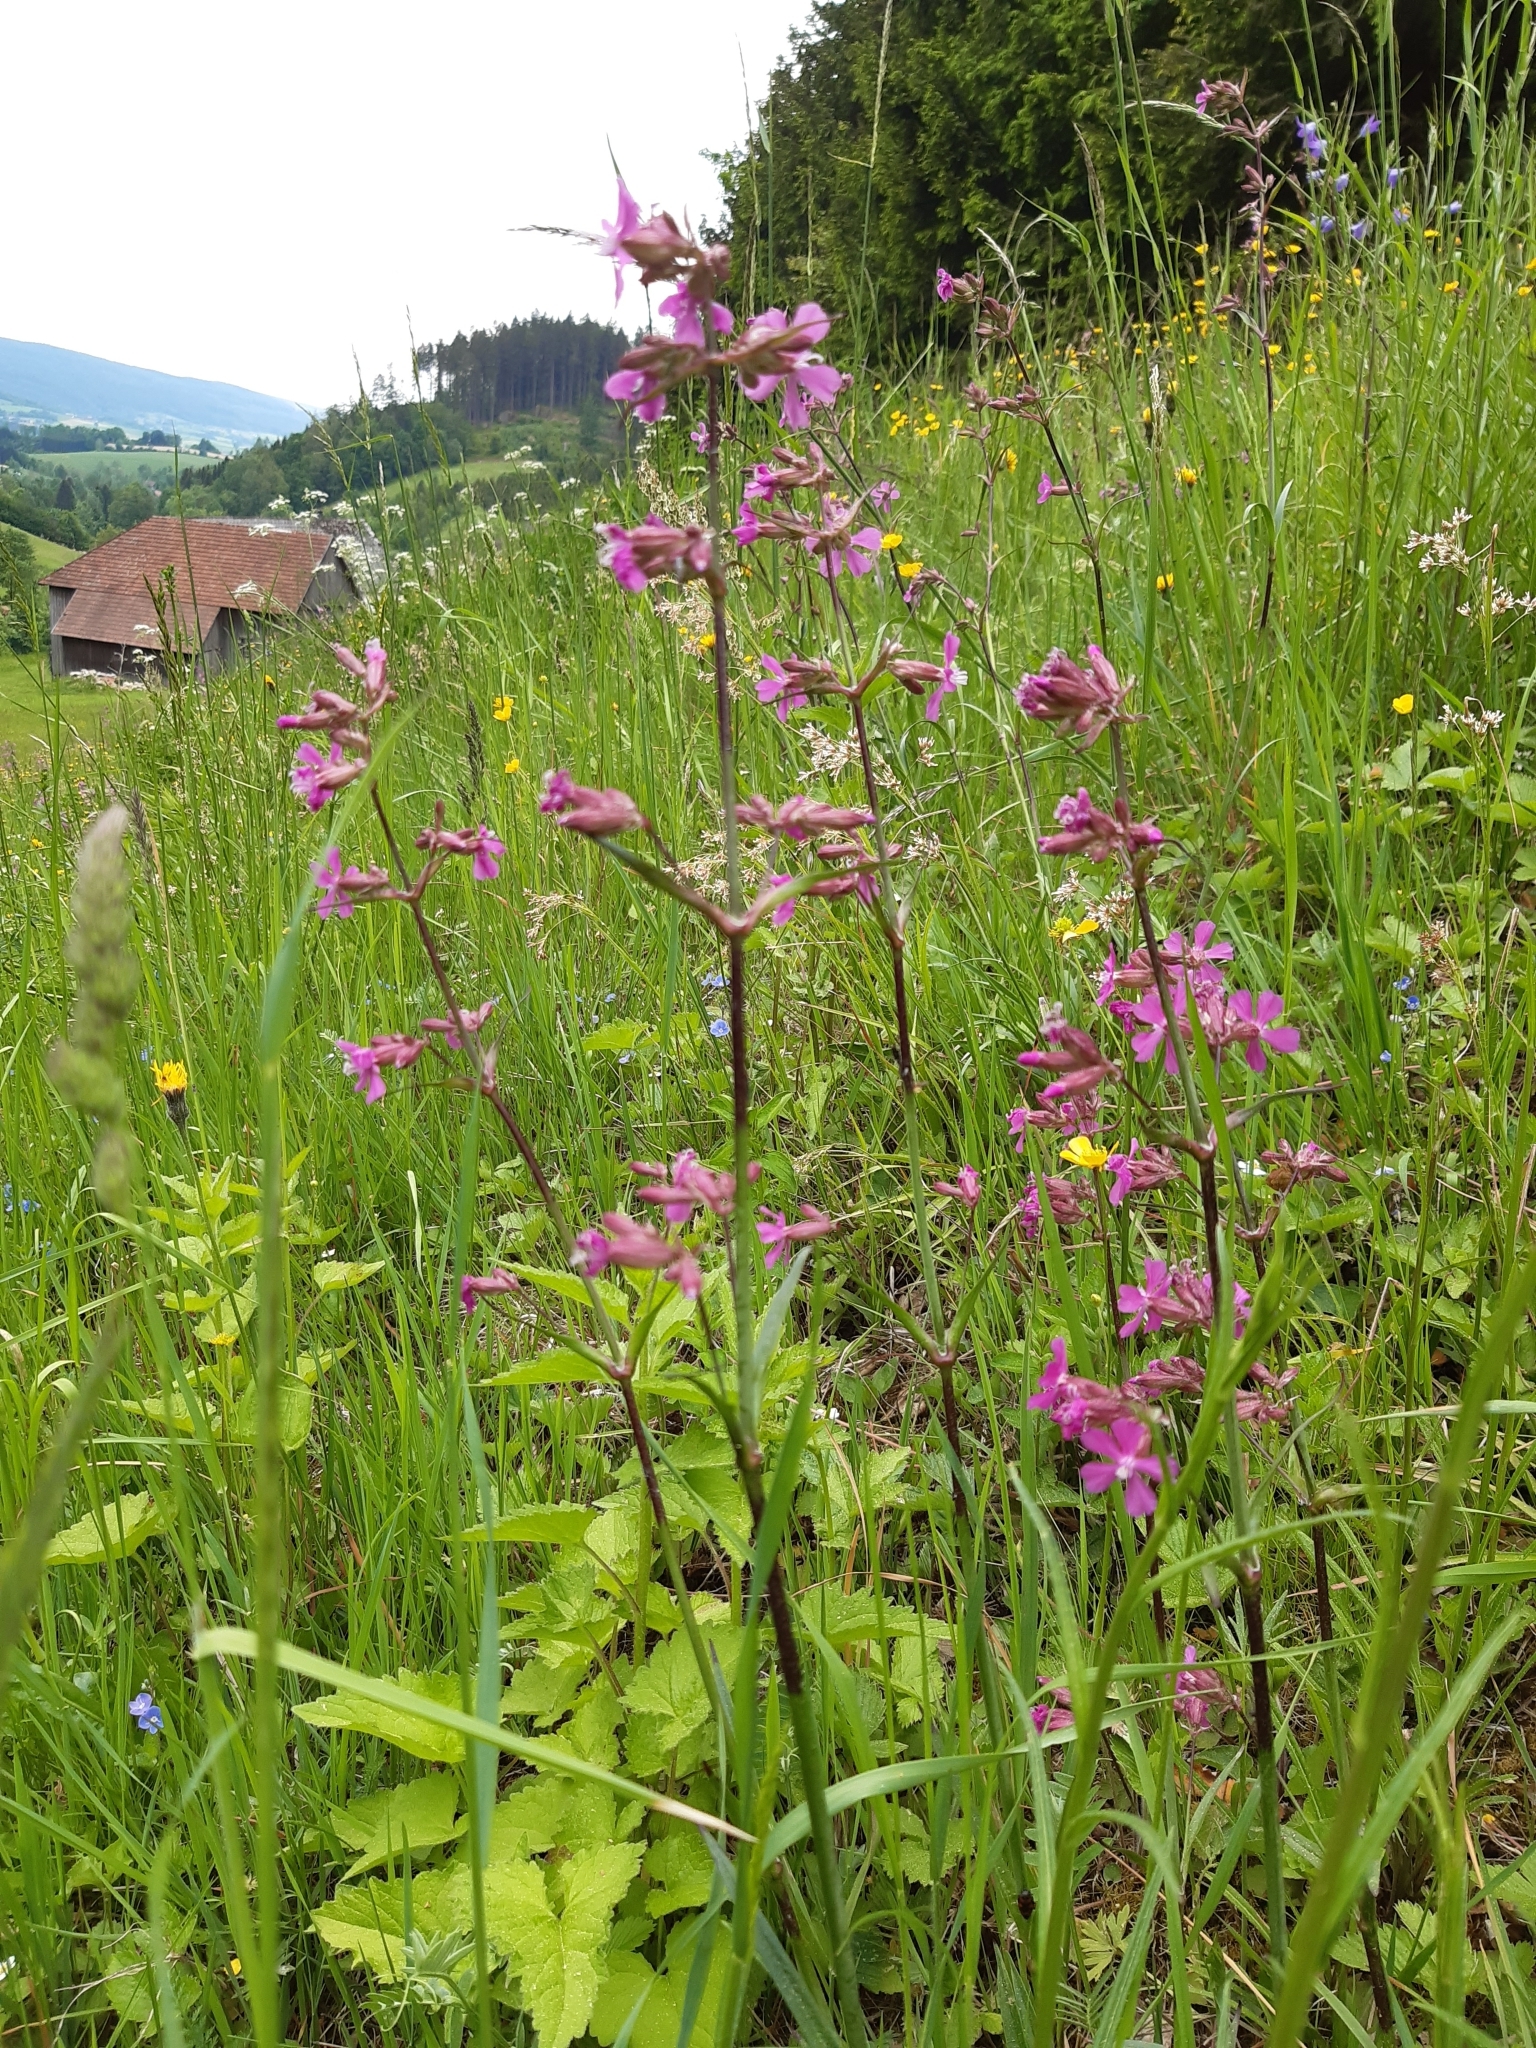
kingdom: Plantae
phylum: Tracheophyta
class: Magnoliopsida
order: Caryophyllales
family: Caryophyllaceae
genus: Viscaria
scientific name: Viscaria vulgaris
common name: Clammy campion
